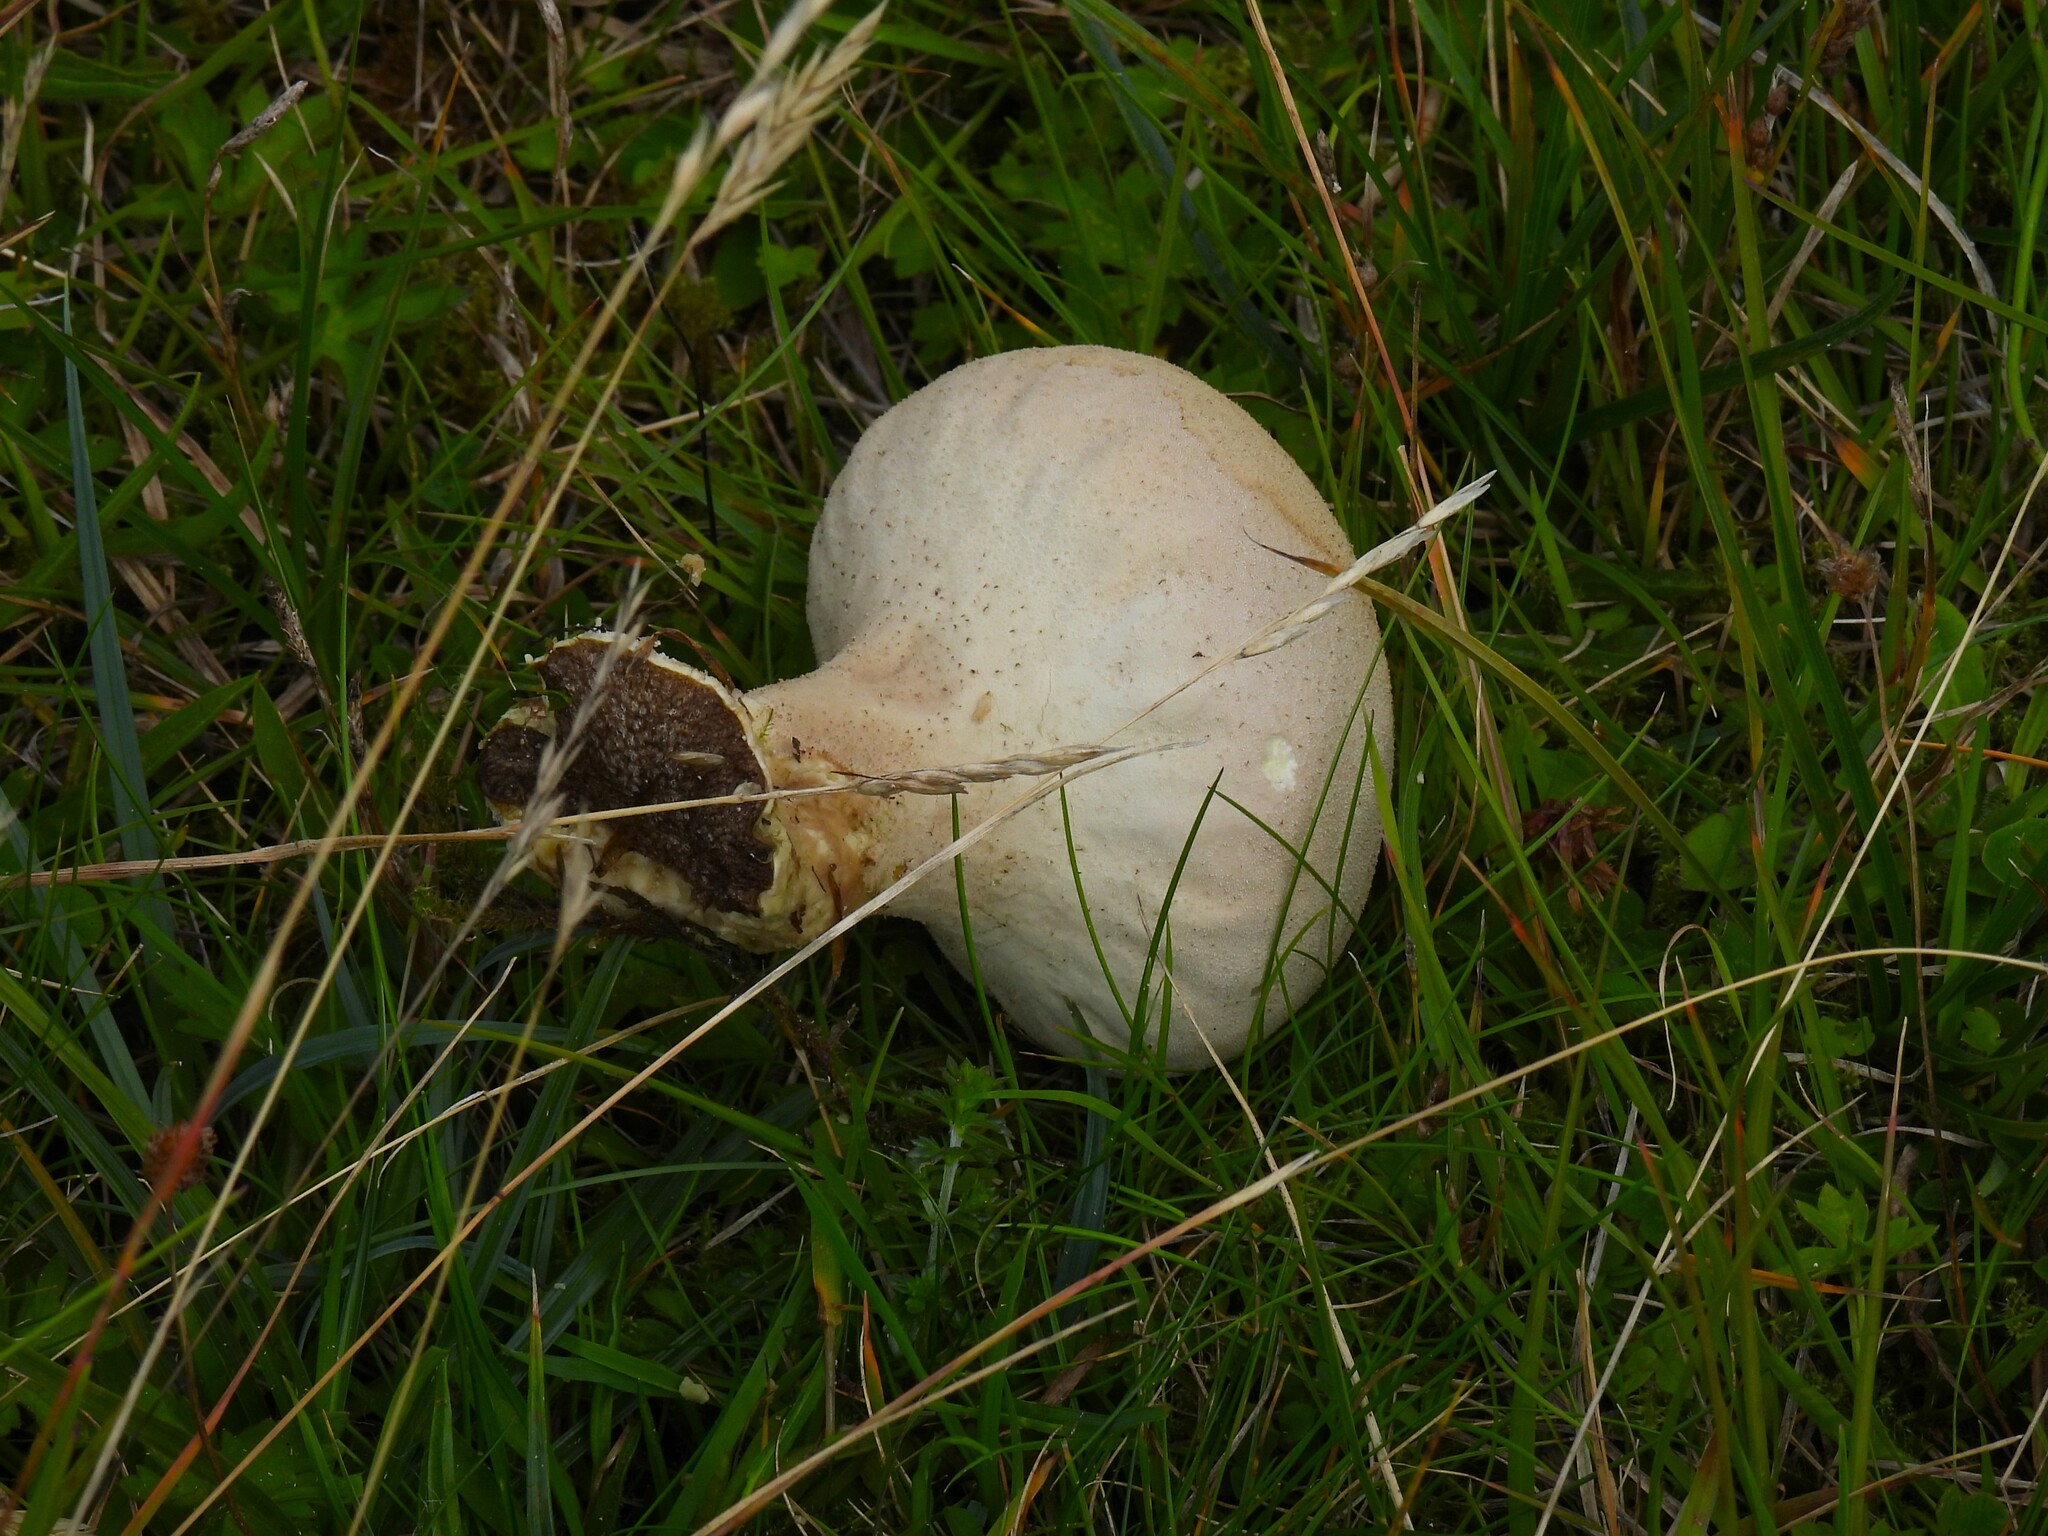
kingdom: Fungi
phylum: Basidiomycota
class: Agaricomycetes
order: Agaricales
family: Lycoperdaceae
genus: Lycoperdon
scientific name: Lycoperdon excipuliforme
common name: Pestle puffball
